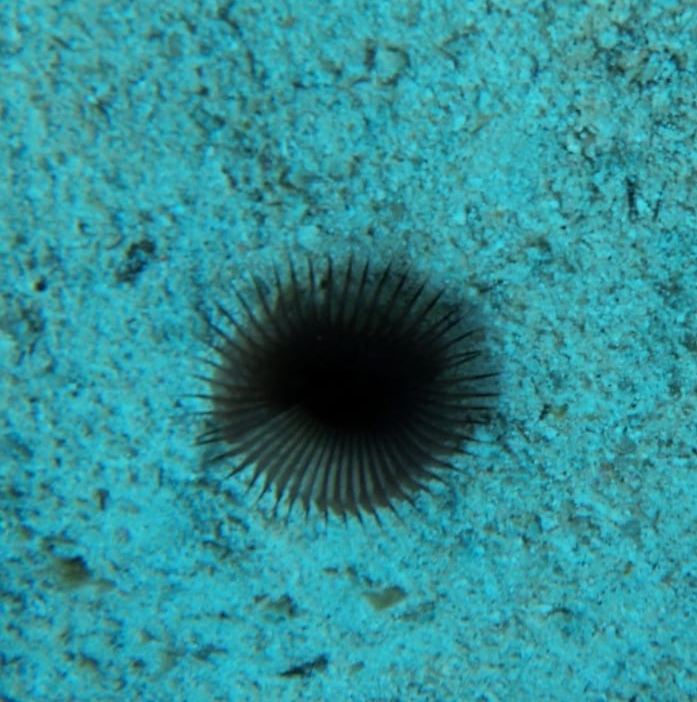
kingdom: Animalia
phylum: Annelida
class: Polychaeta
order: Sabellida
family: Sabellidae
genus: Myxicola
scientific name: Myxicola infundibulum
